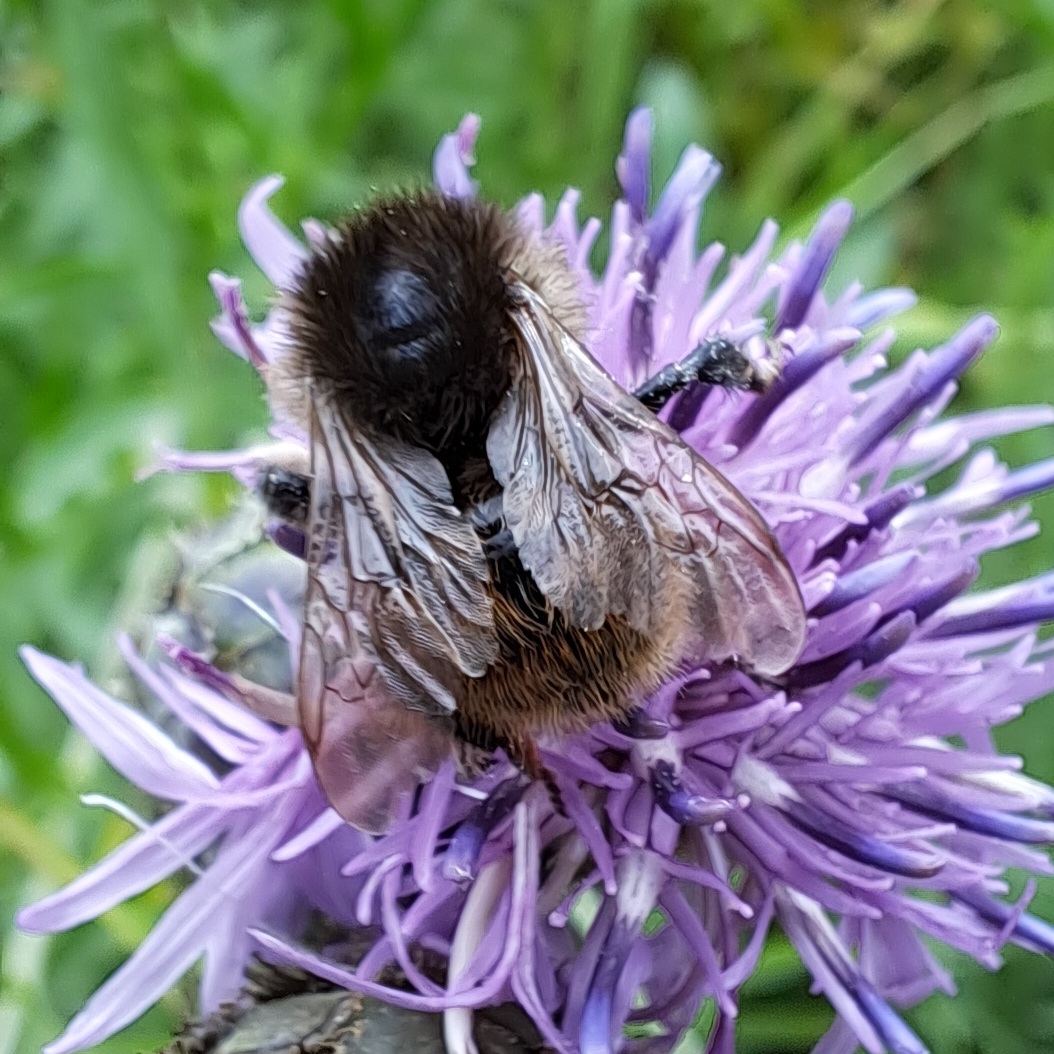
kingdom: Animalia
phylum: Arthropoda
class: Insecta
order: Hymenoptera
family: Apidae
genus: Bombus
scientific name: Bombus humilis
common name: Brown-banded carder-bee
